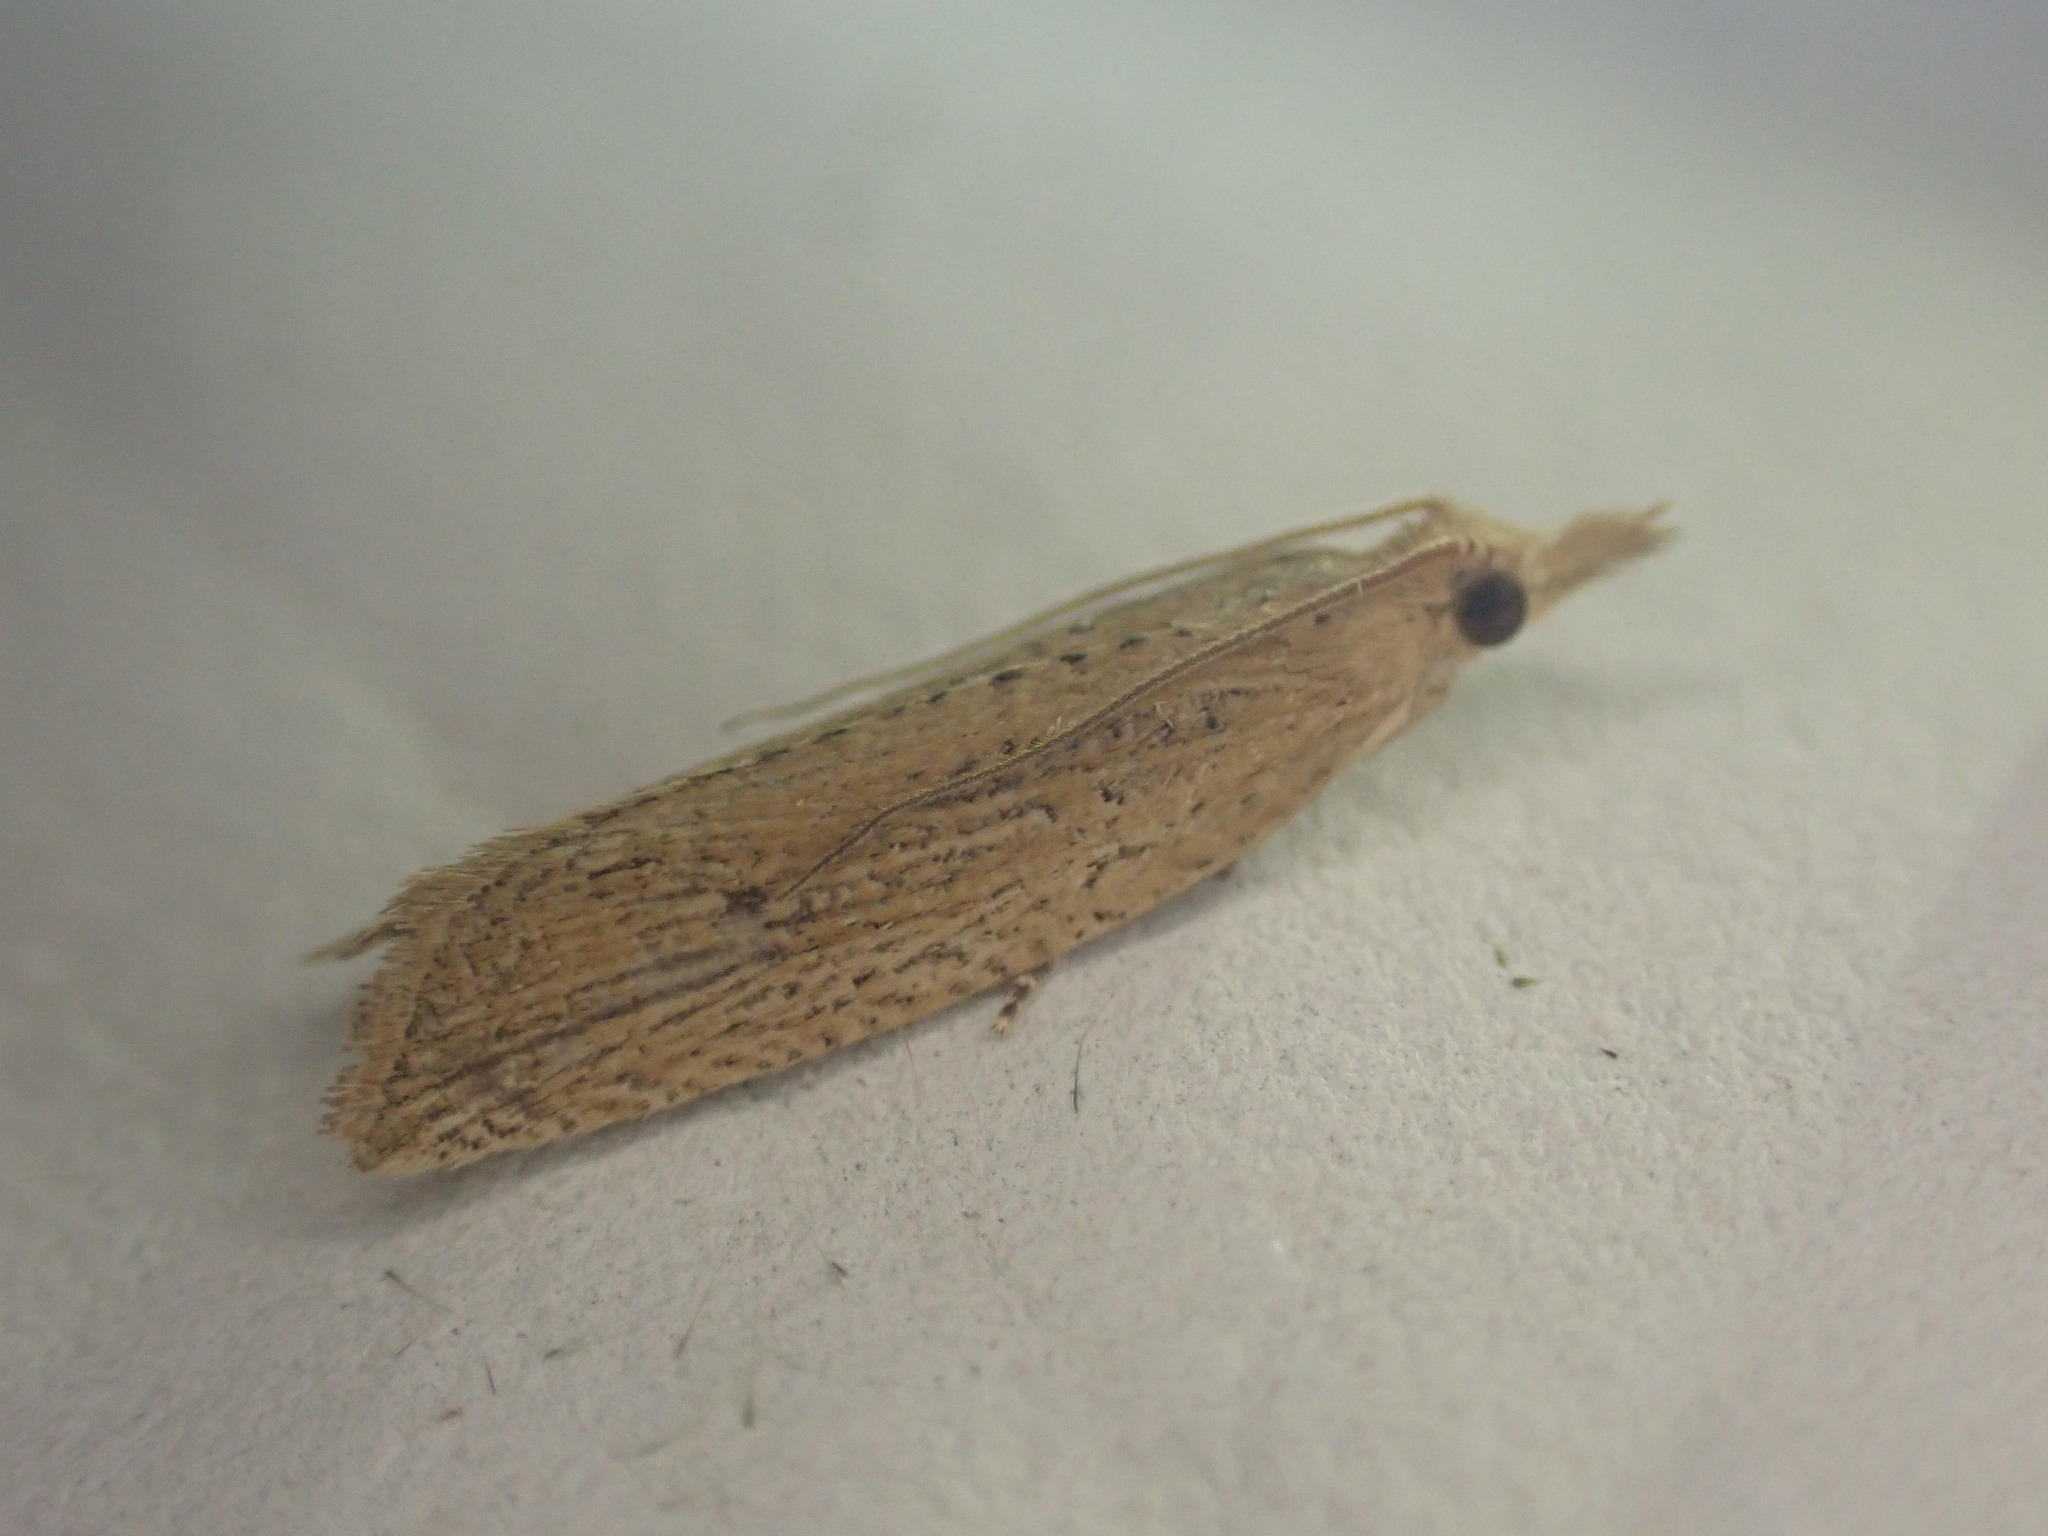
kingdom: Animalia
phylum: Arthropoda
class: Insecta
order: Lepidoptera
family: Tortricidae
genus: Bactra
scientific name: Bactra noteraula
